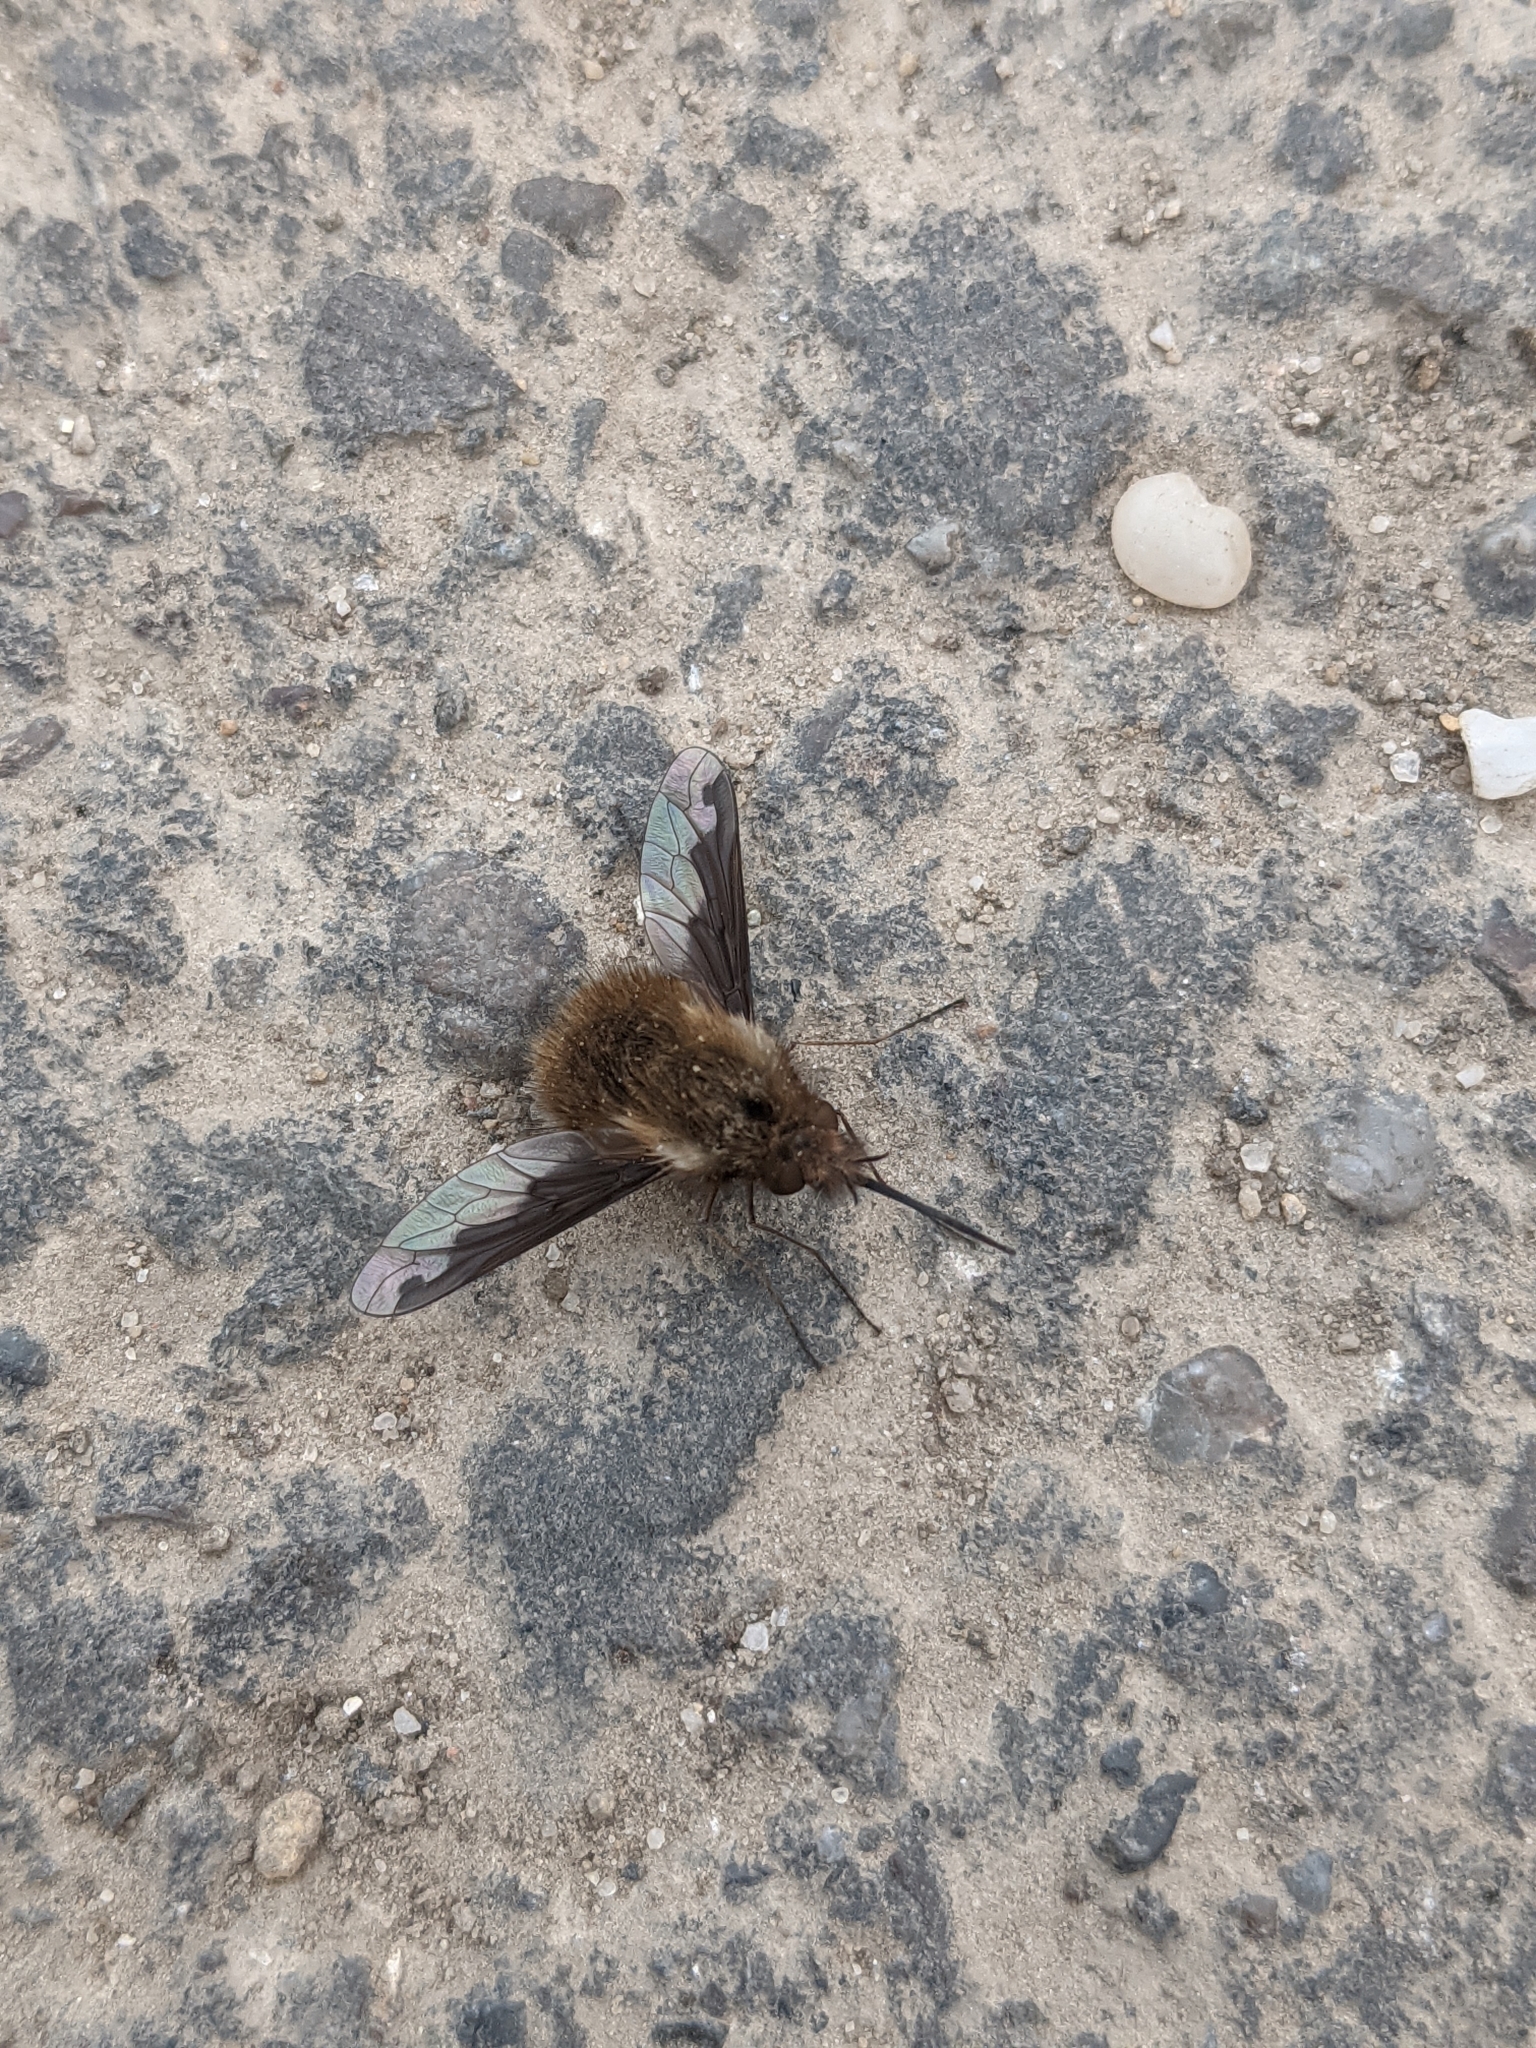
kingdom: Animalia
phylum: Arthropoda
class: Insecta
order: Diptera
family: Bombyliidae
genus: Bombylius
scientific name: Bombylius major
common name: Bee fly
